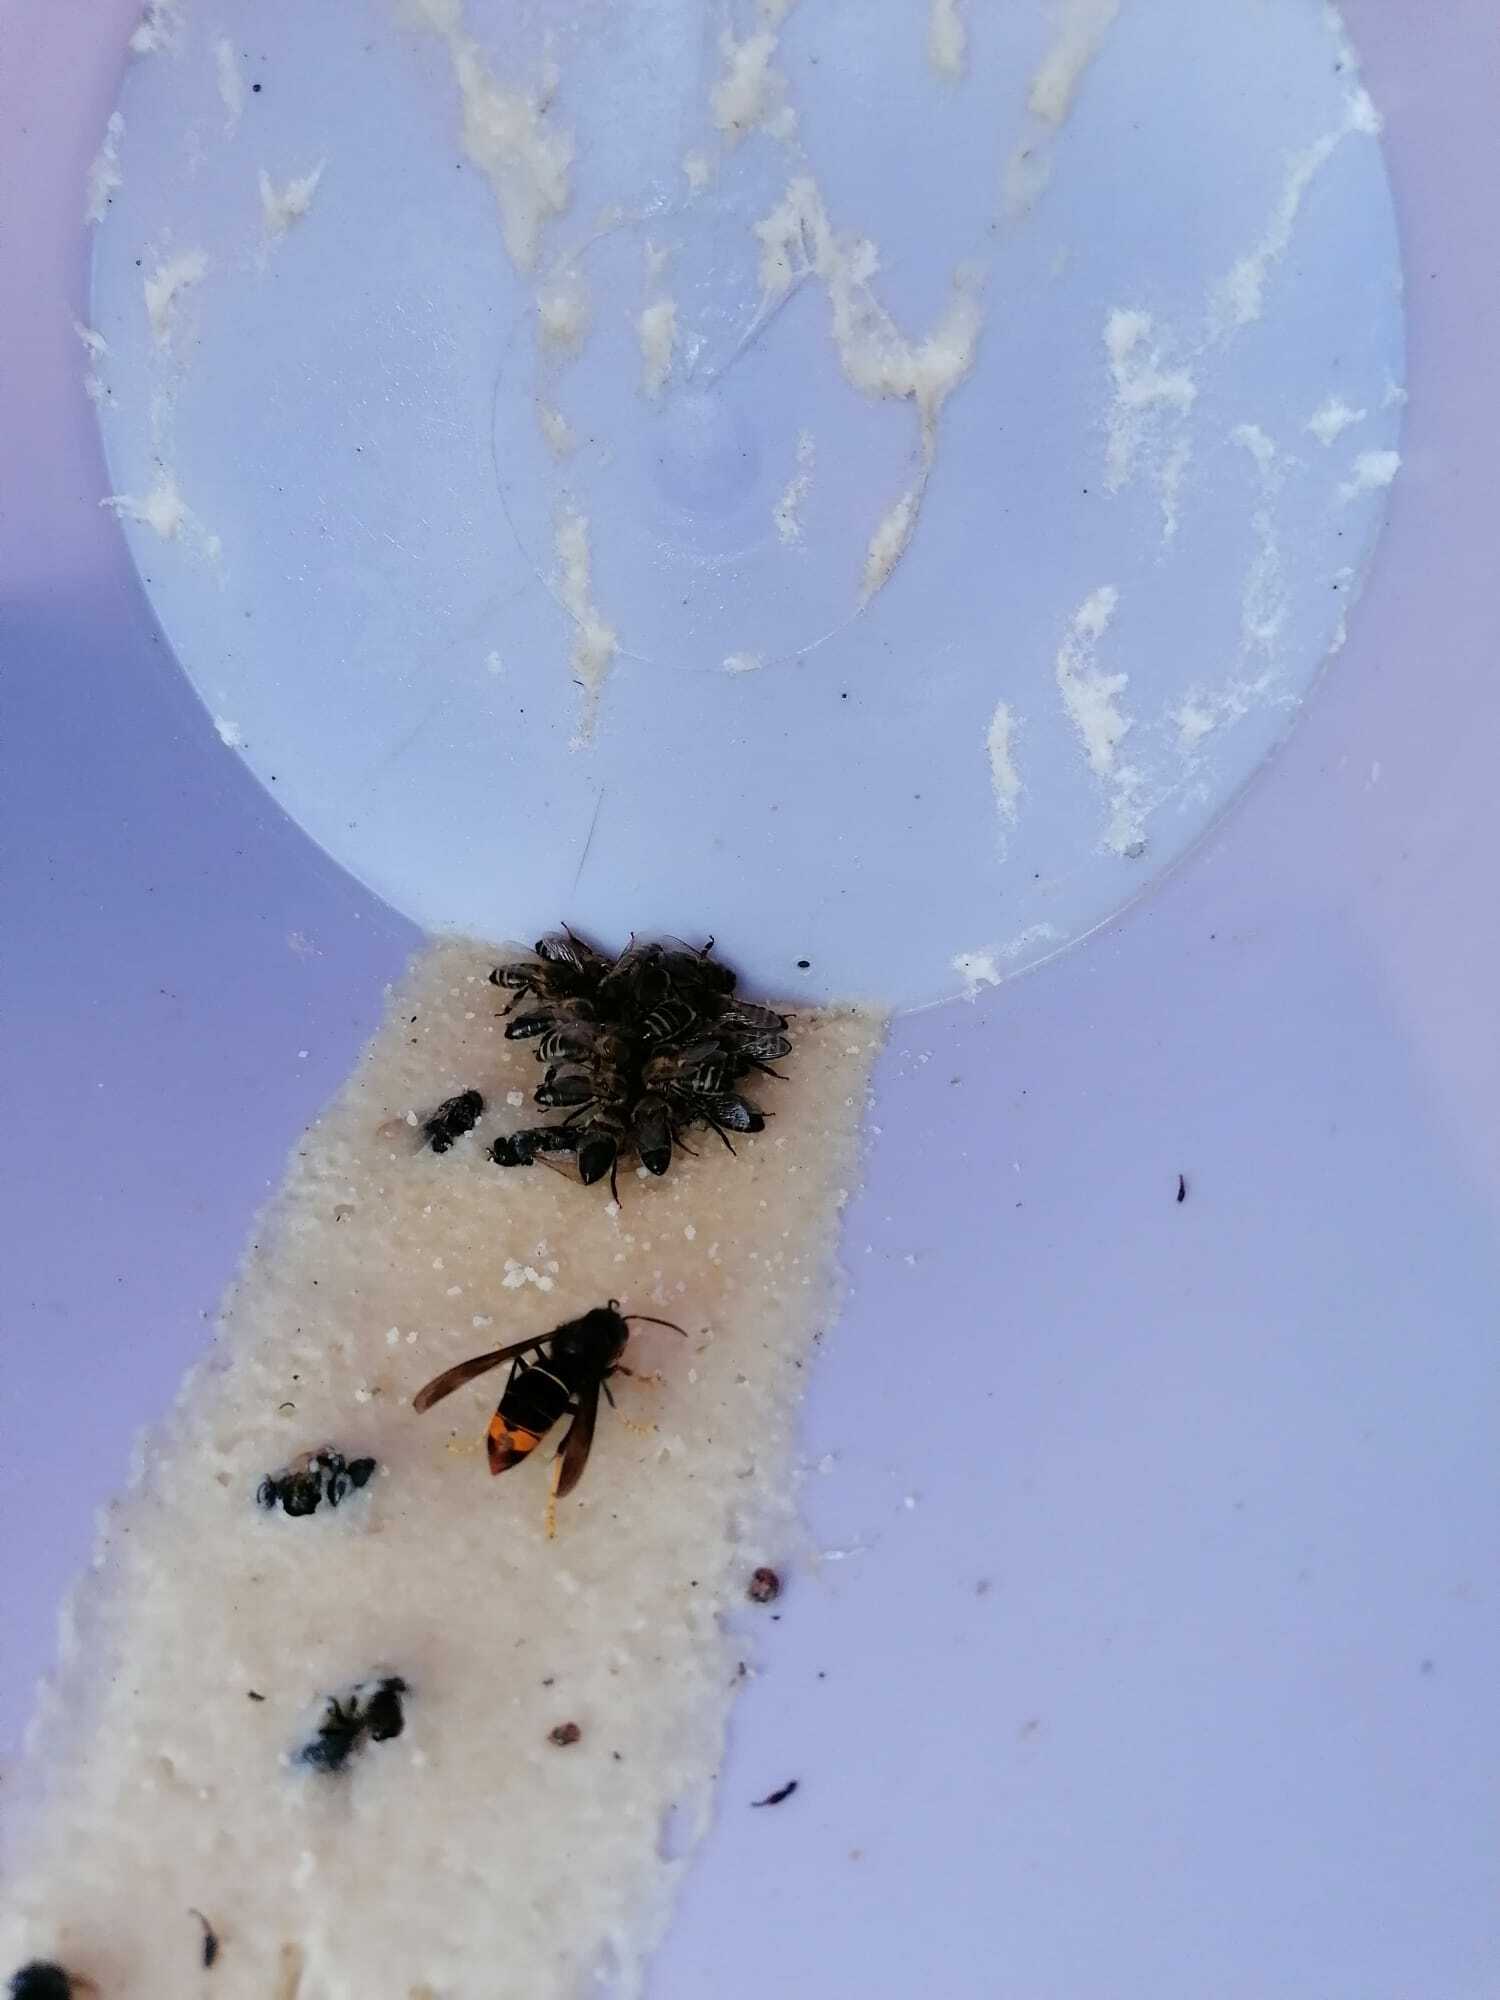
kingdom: Animalia
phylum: Arthropoda
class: Insecta
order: Hymenoptera
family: Vespidae
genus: Vespa
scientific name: Vespa velutina
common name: Asian hornet
